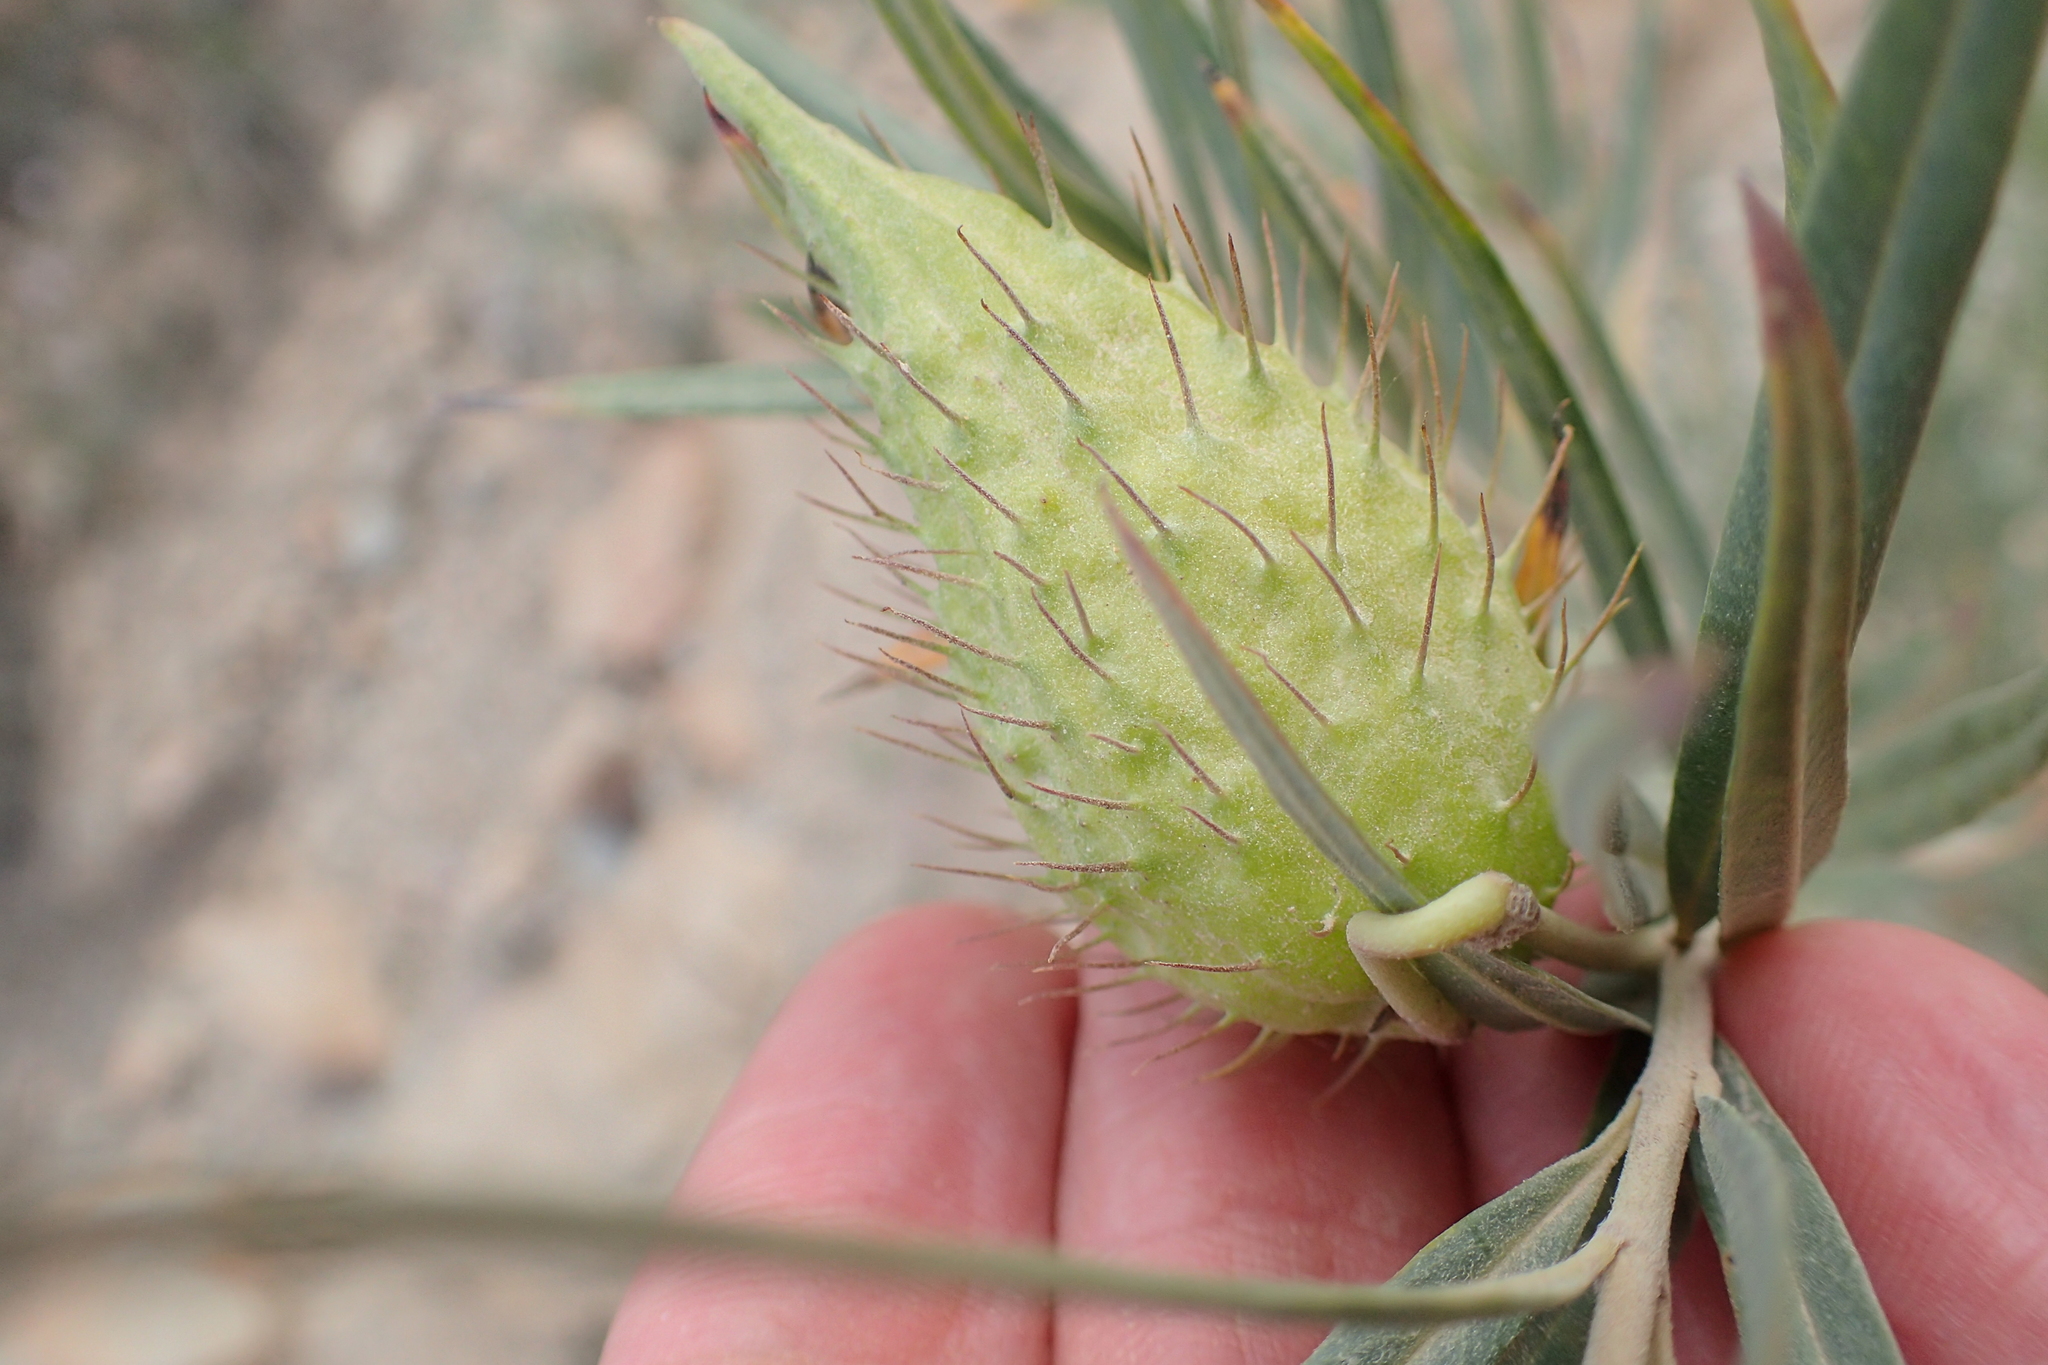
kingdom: Plantae
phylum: Tracheophyta
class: Magnoliopsida
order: Gentianales
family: Apocynaceae
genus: Gomphocarpus
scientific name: Gomphocarpus fruticosus
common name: Milkweed
